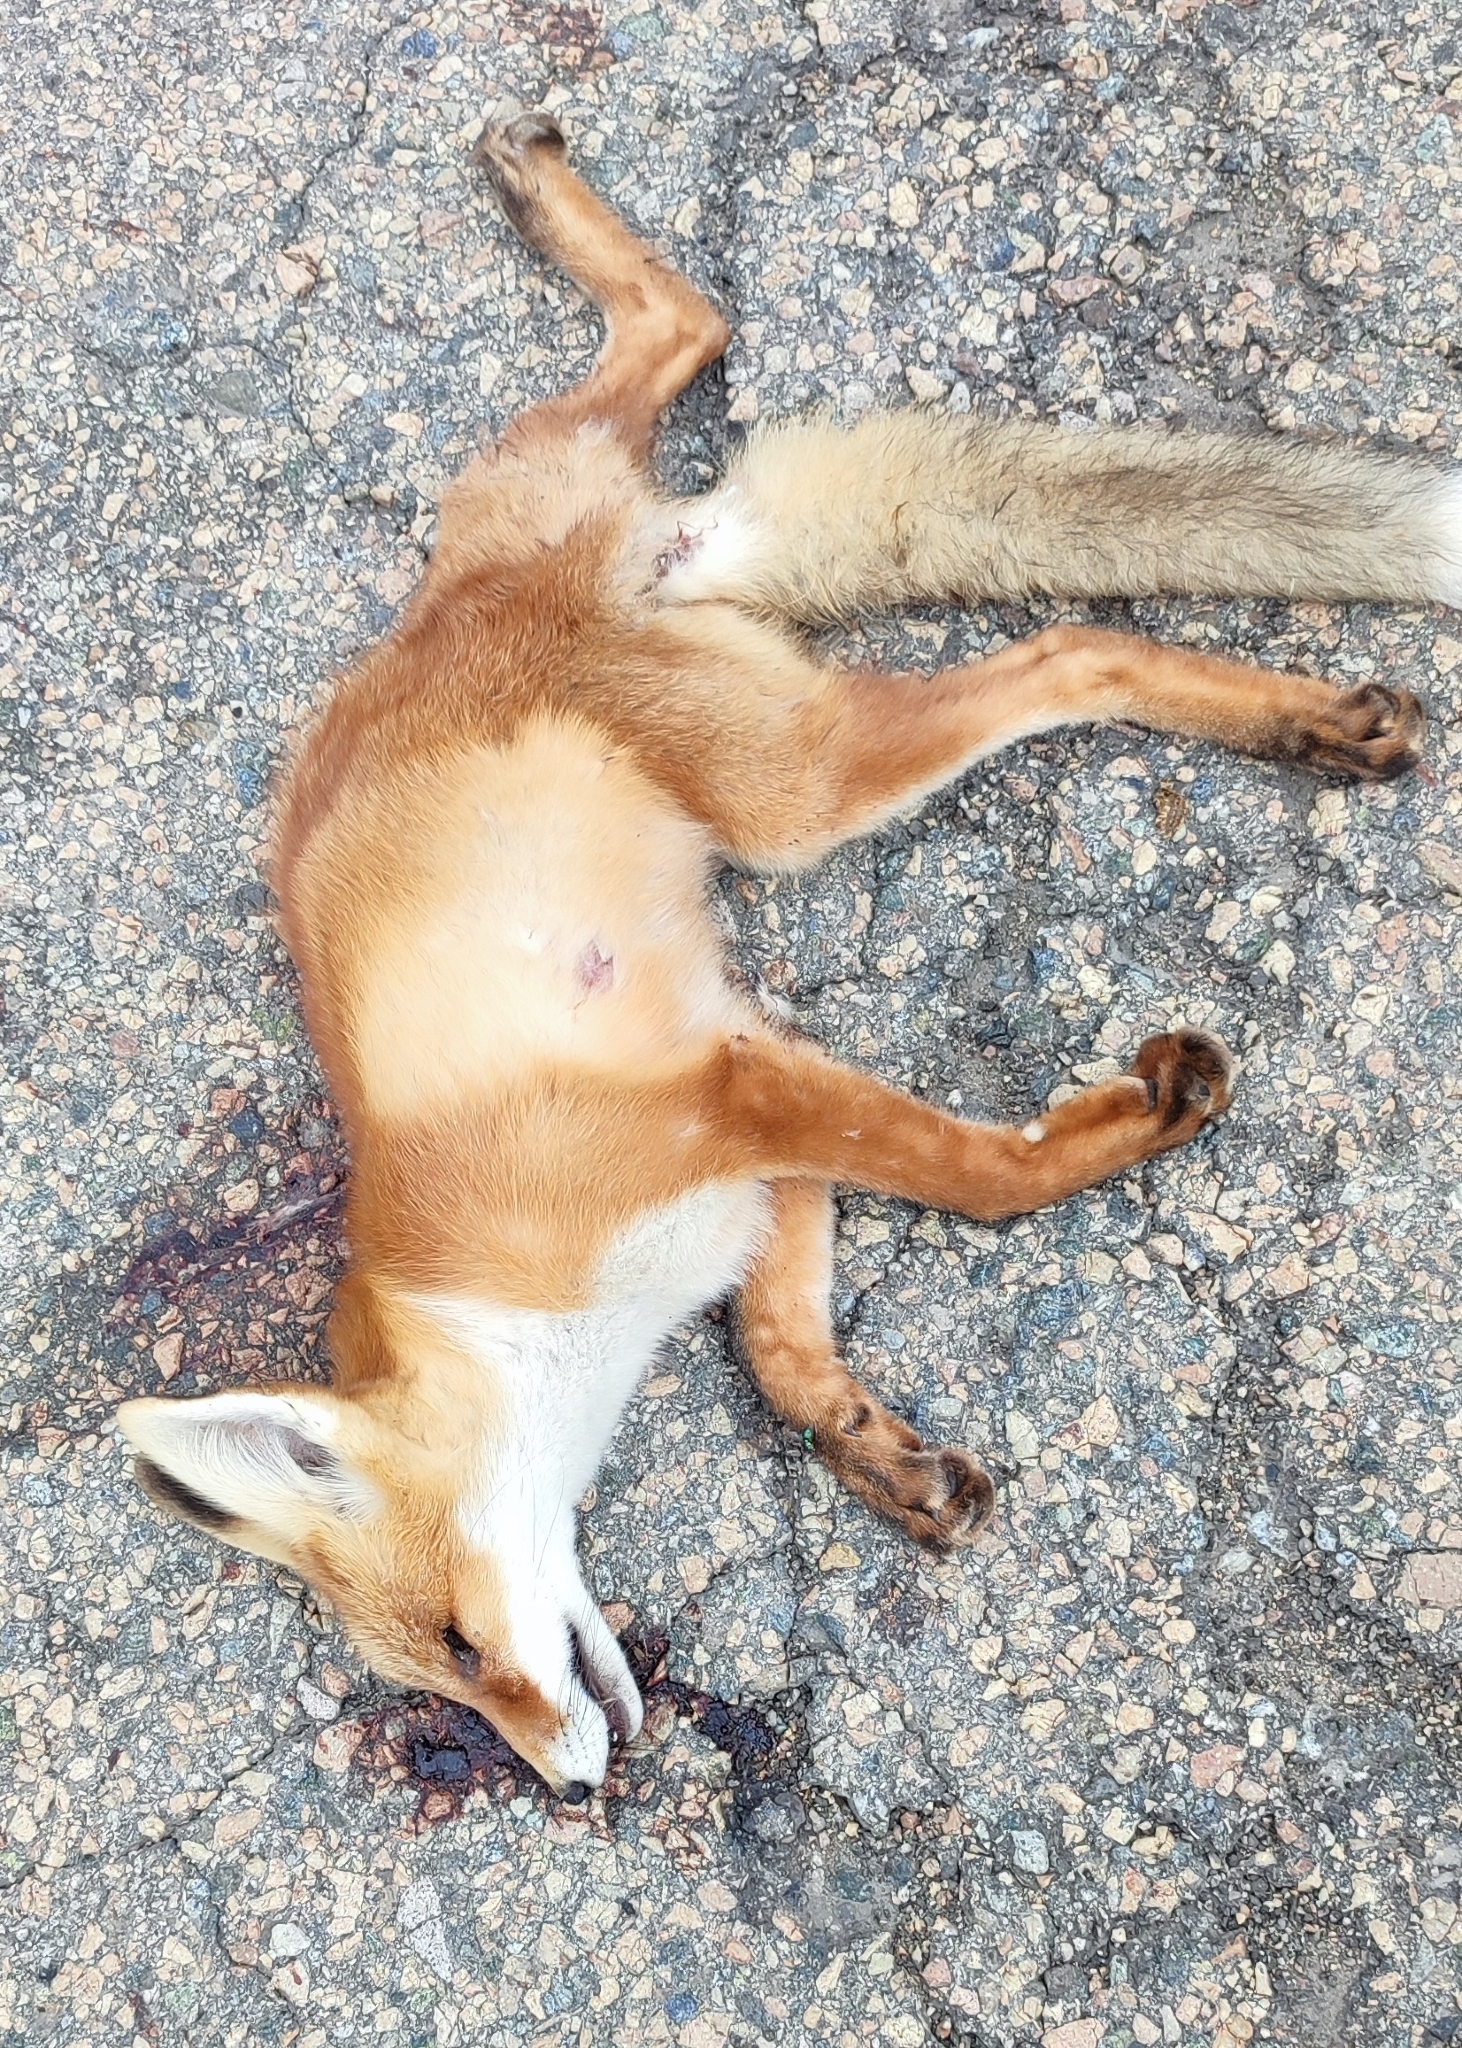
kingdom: Animalia
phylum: Chordata
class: Mammalia
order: Carnivora
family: Canidae
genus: Vulpes
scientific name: Vulpes vulpes
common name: Red fox
